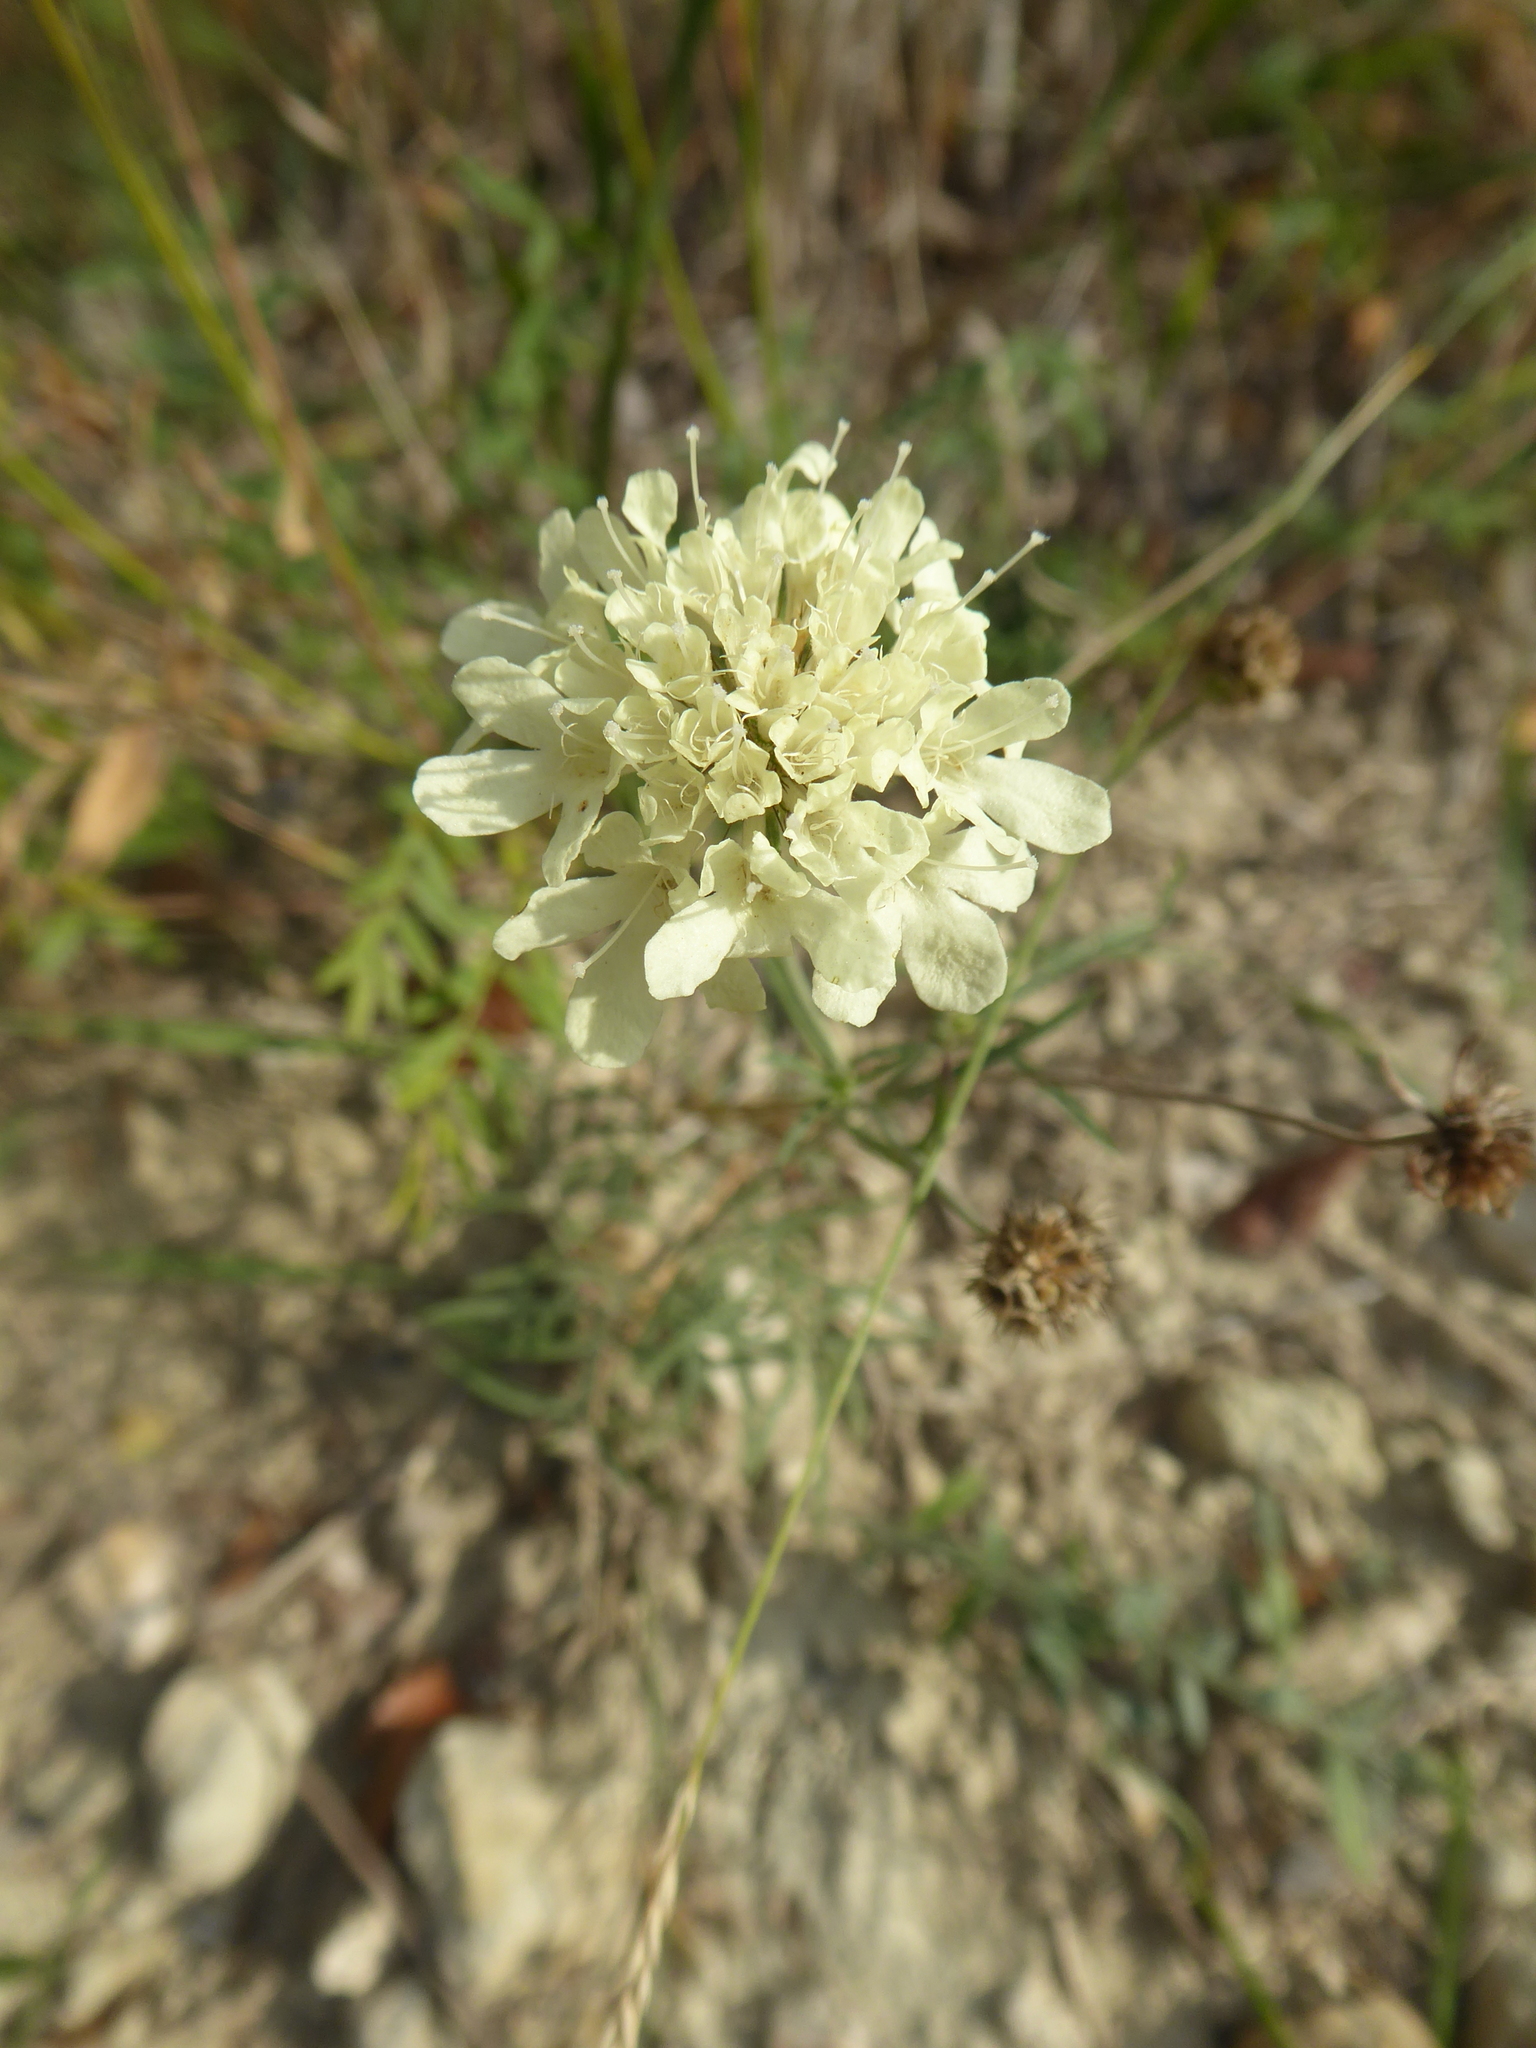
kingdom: Plantae
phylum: Tracheophyta
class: Magnoliopsida
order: Dipsacales
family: Caprifoliaceae
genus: Scabiosa
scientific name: Scabiosa ochroleuca
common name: Cream pincushions
